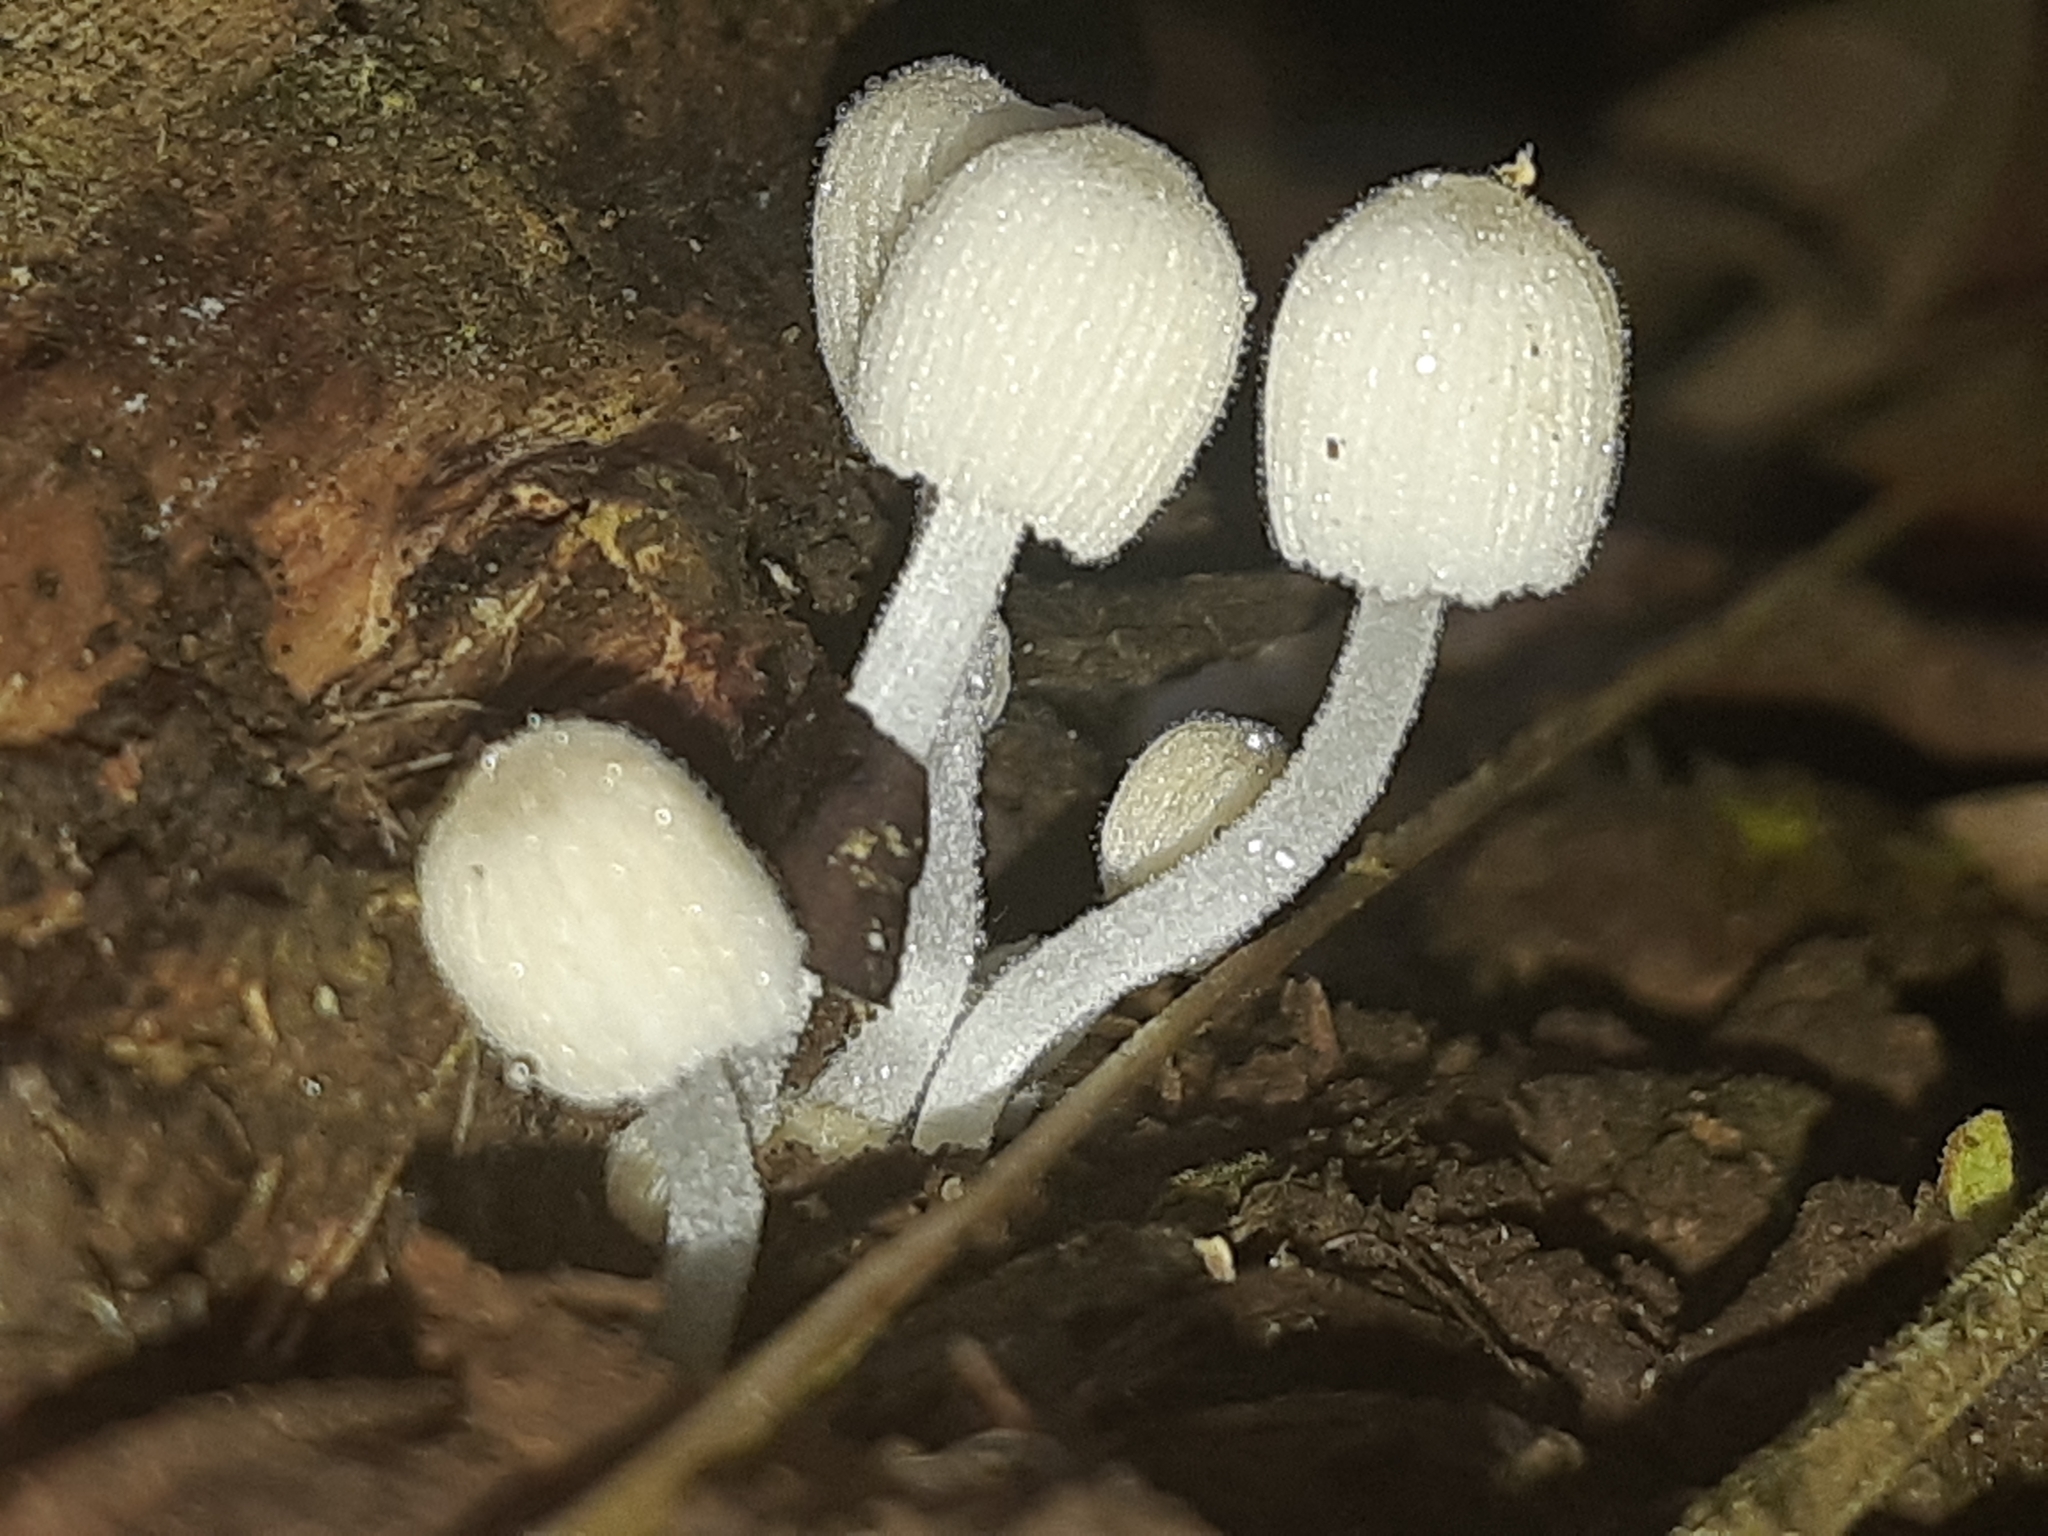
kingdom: Fungi
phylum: Basidiomycota
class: Agaricomycetes
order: Agaricales
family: Psathyrellaceae
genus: Coprinellus
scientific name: Coprinellus disseminatus
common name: Fairies' bonnets
